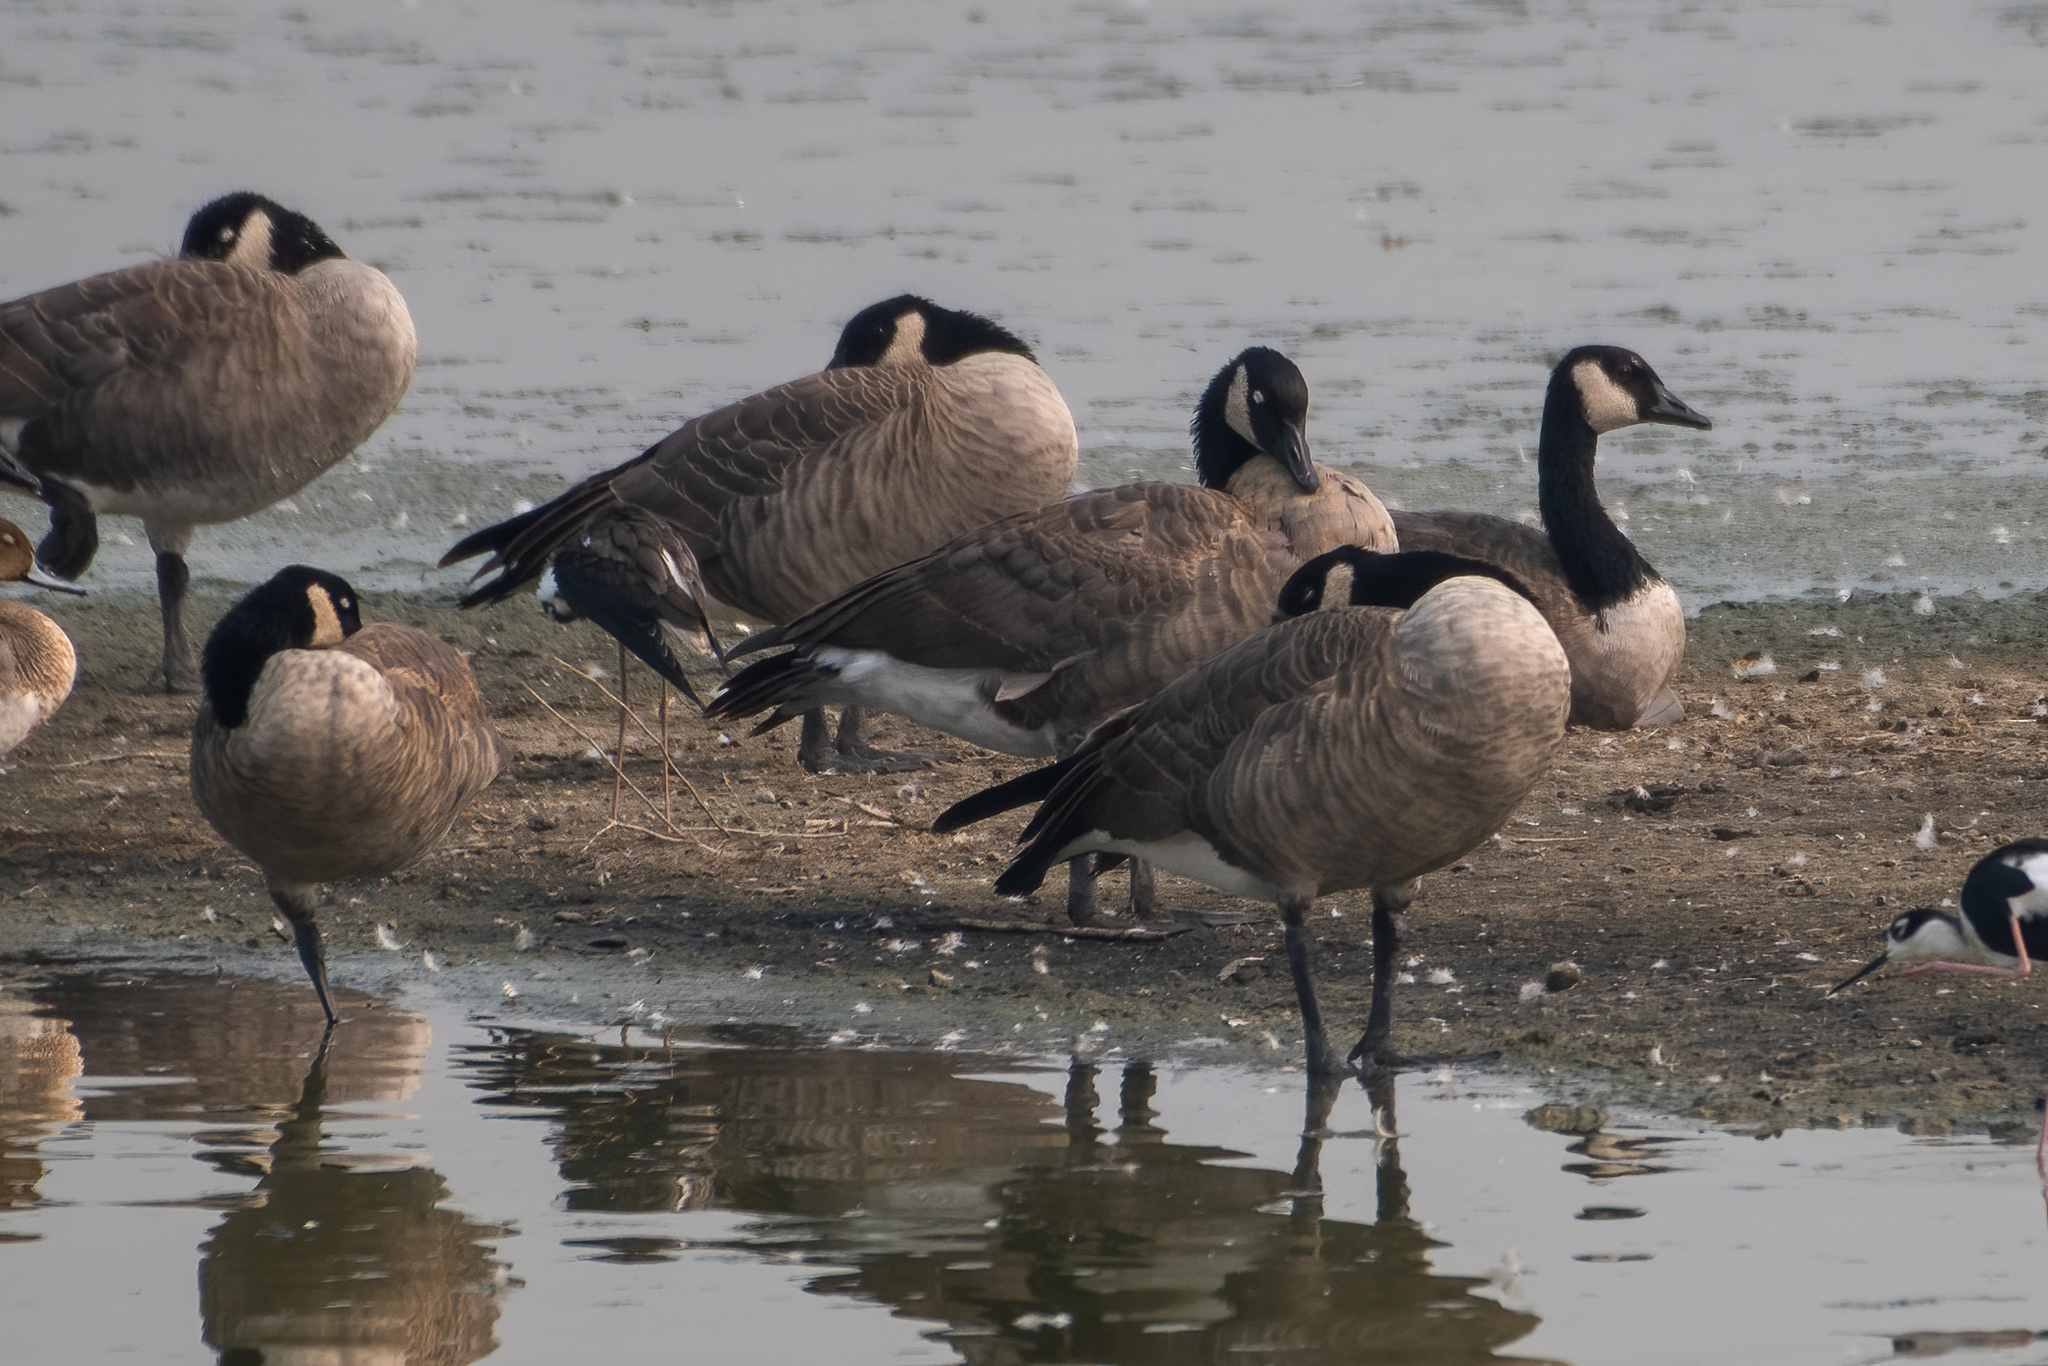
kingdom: Animalia
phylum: Chordata
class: Aves
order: Anseriformes
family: Anatidae
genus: Branta
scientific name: Branta canadensis
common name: Canada goose
